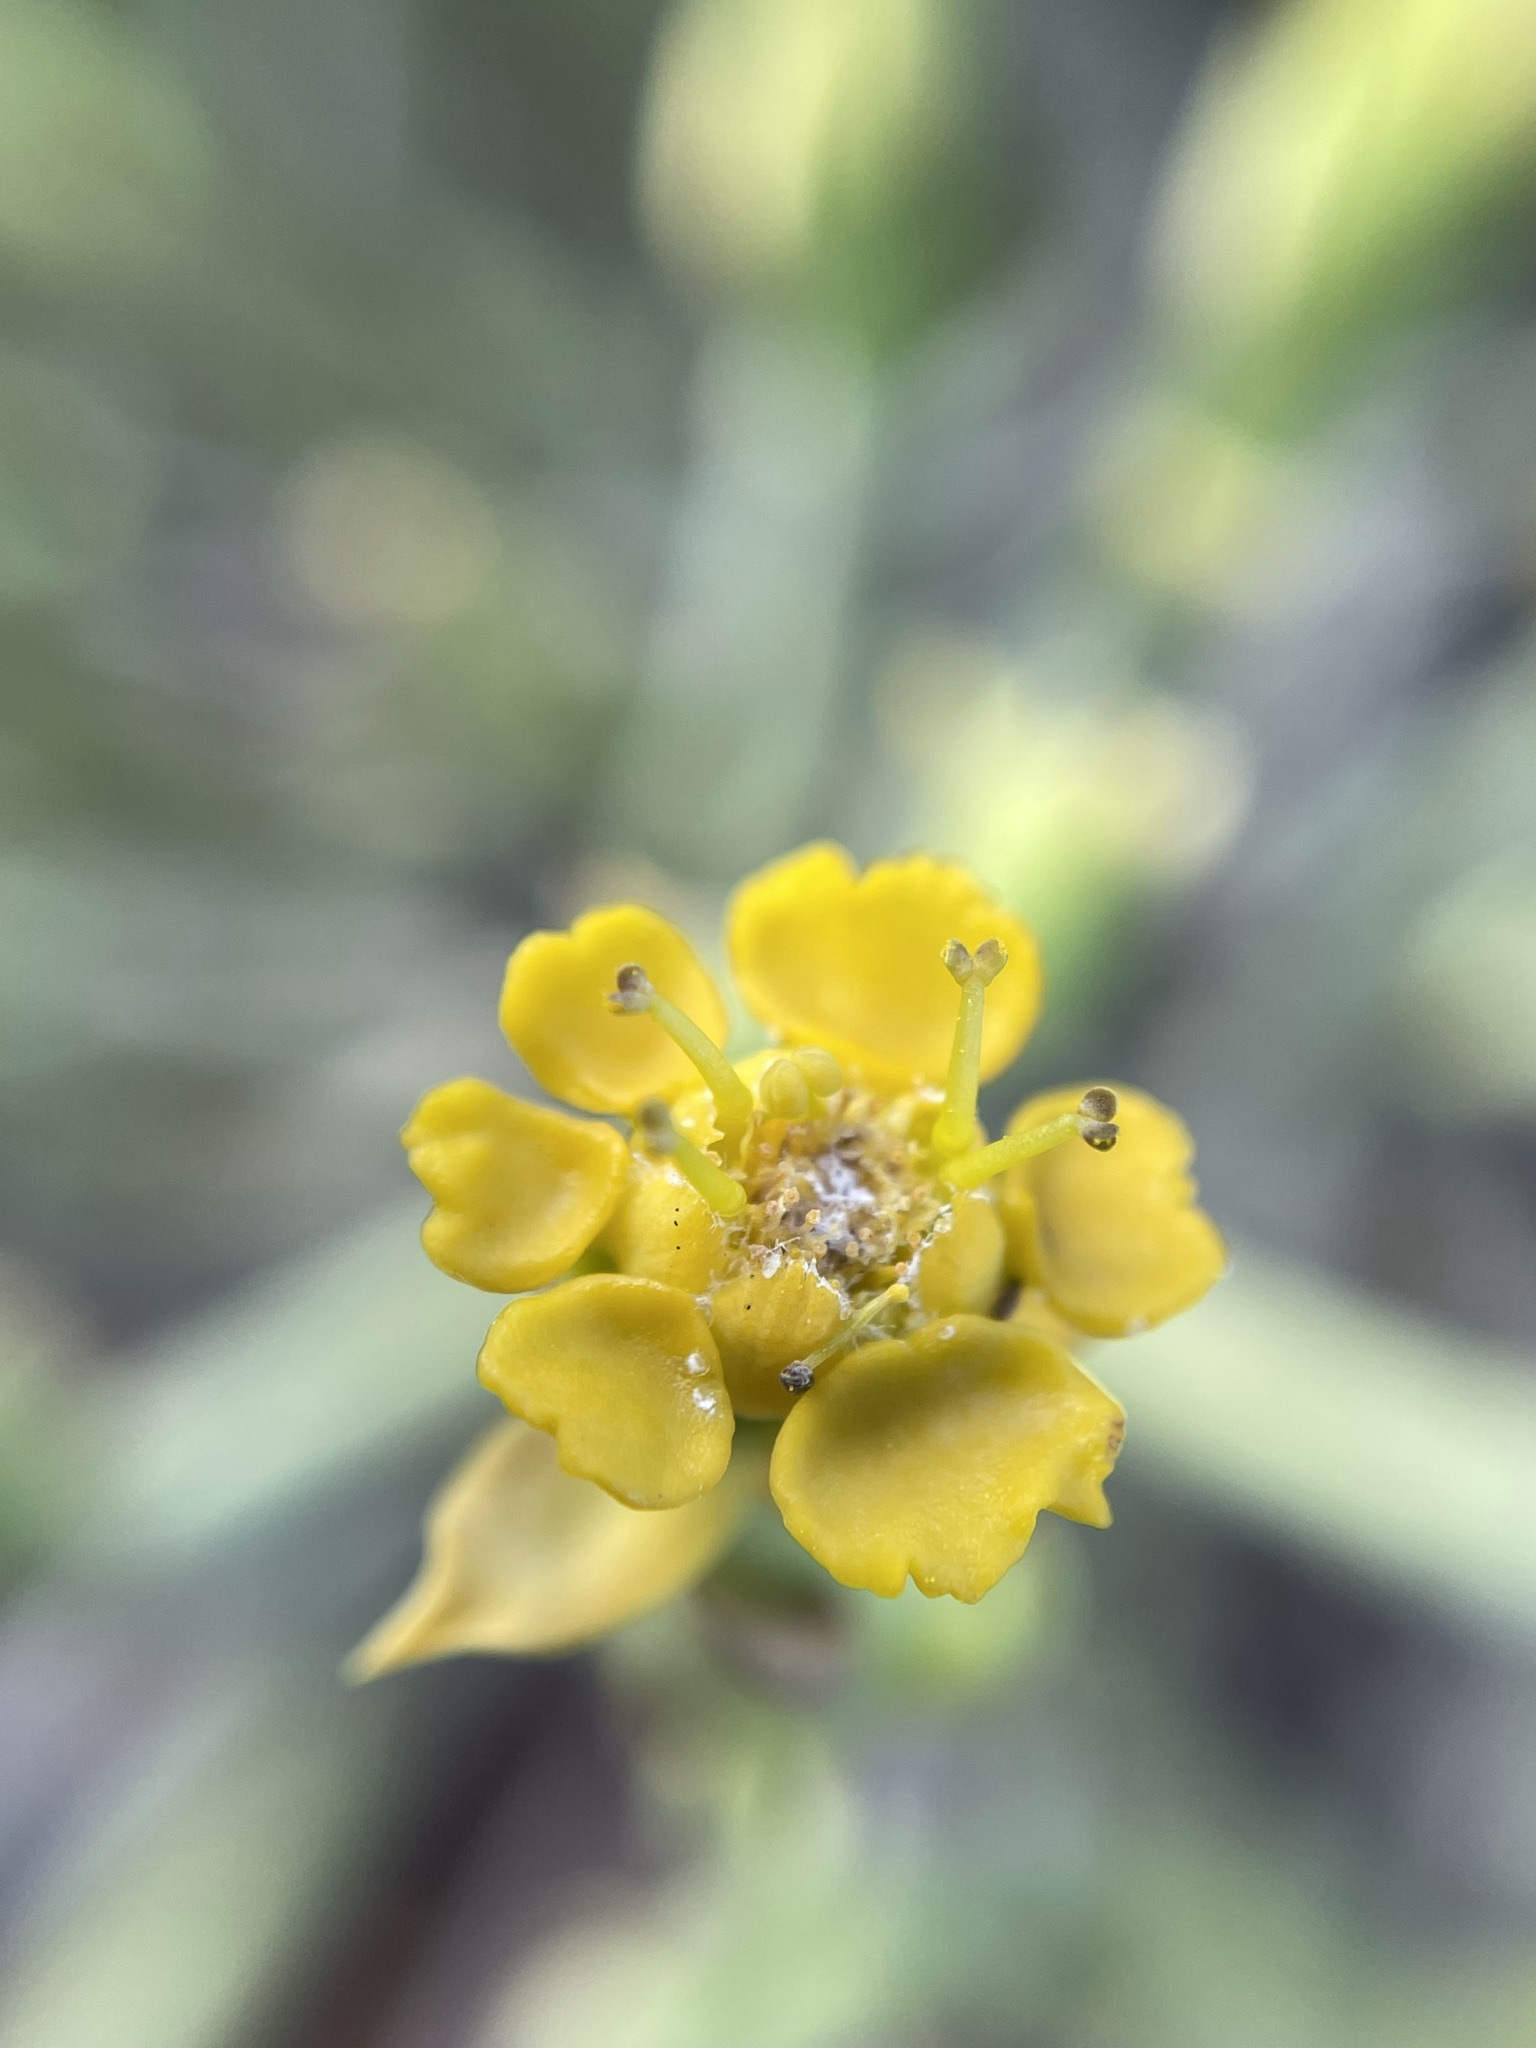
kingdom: Plantae
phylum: Tracheophyta
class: Magnoliopsida
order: Malpighiales
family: Euphorbiaceae
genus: Euphorbia
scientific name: Euphorbia mauritanica
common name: Jackal's-food
